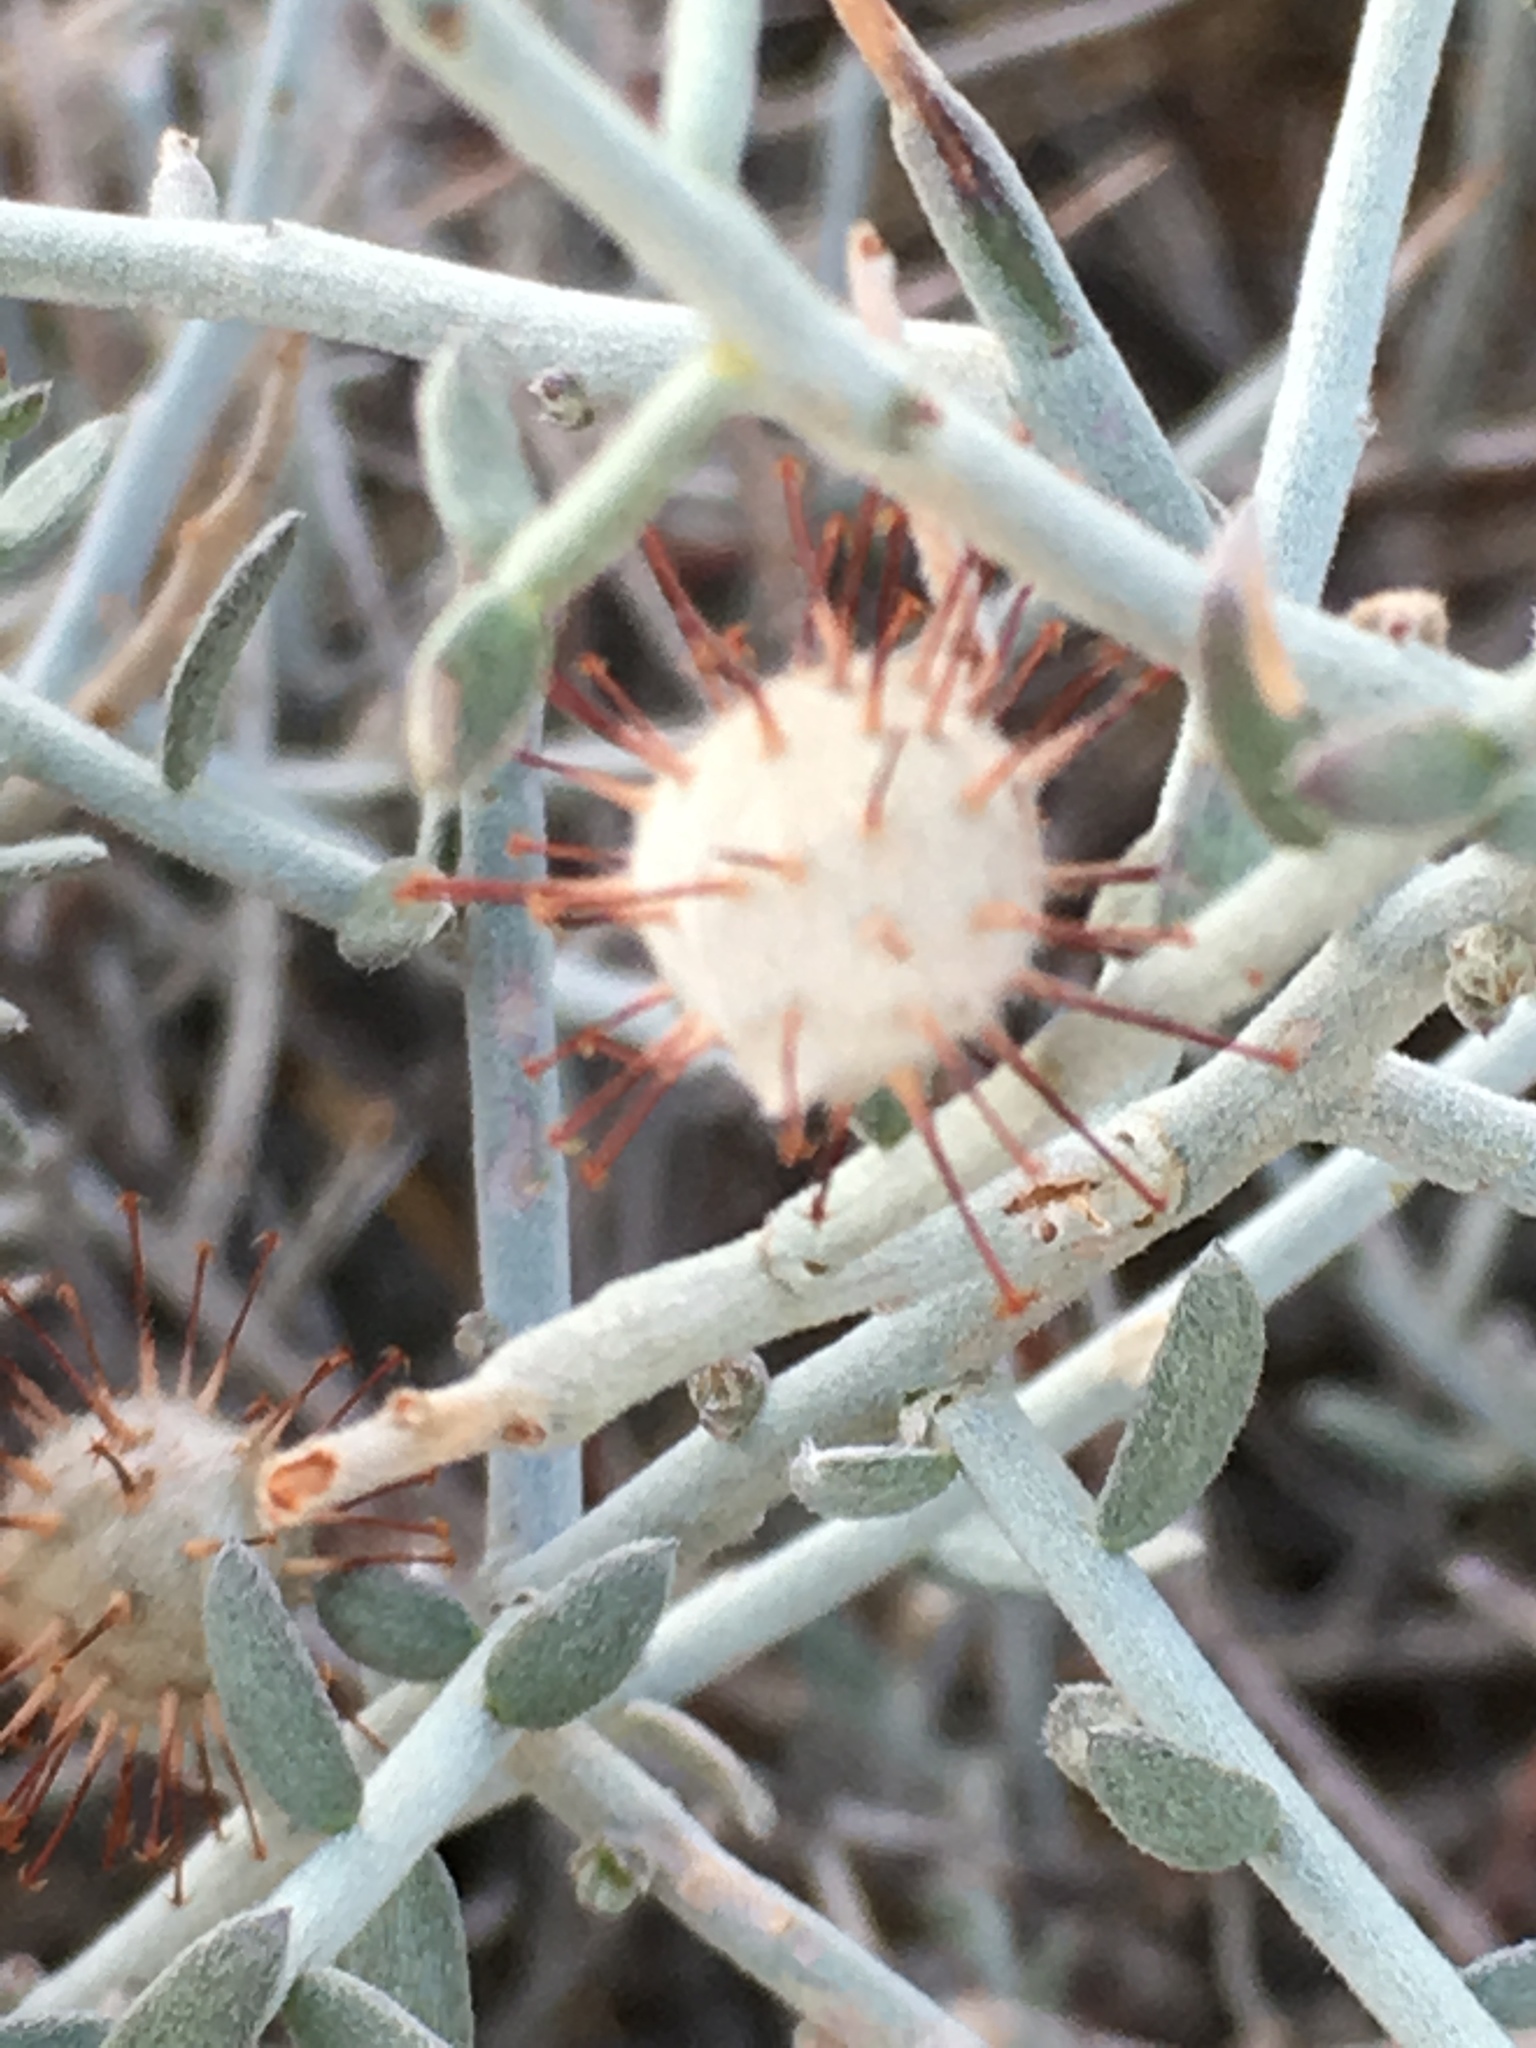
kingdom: Plantae
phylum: Tracheophyta
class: Magnoliopsida
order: Zygophyllales
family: Krameriaceae
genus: Krameria
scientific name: Krameria bicolor
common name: White ratany
